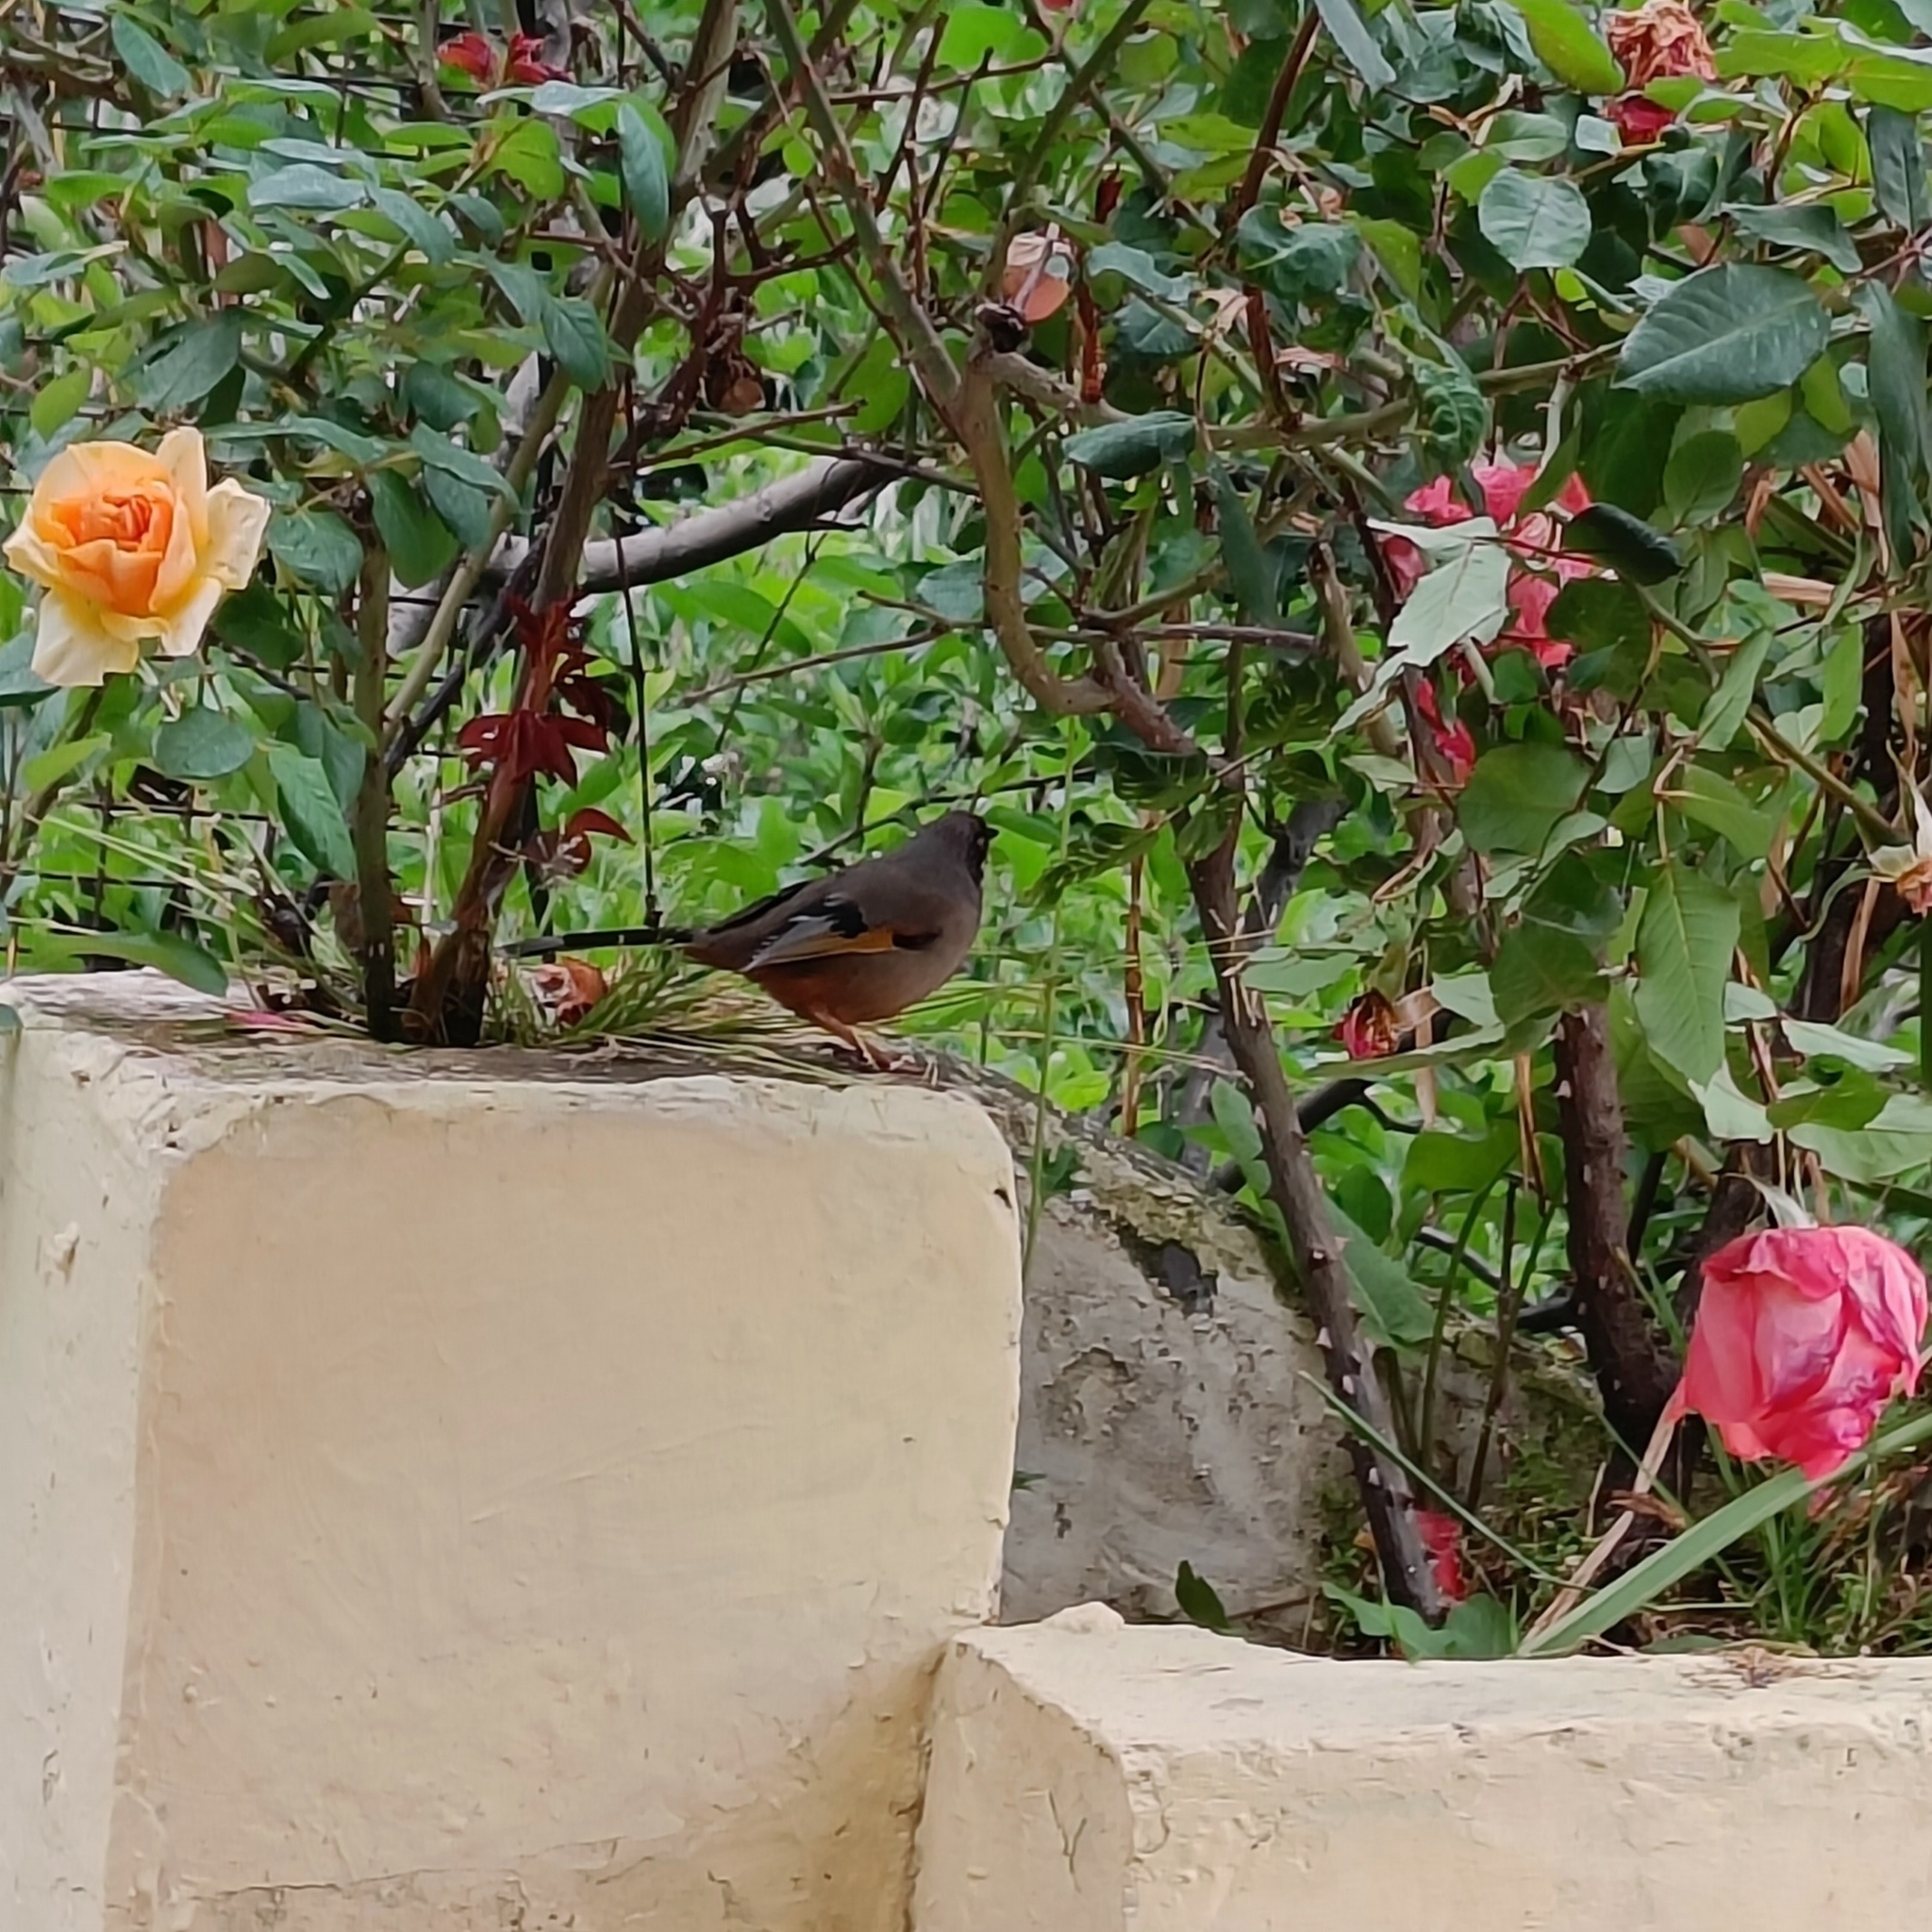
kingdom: Animalia
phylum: Chordata
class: Aves
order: Passeriformes
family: Leiothrichidae
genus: Trochalopteron
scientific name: Trochalopteron variegatum
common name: Variegated laughingthrush
